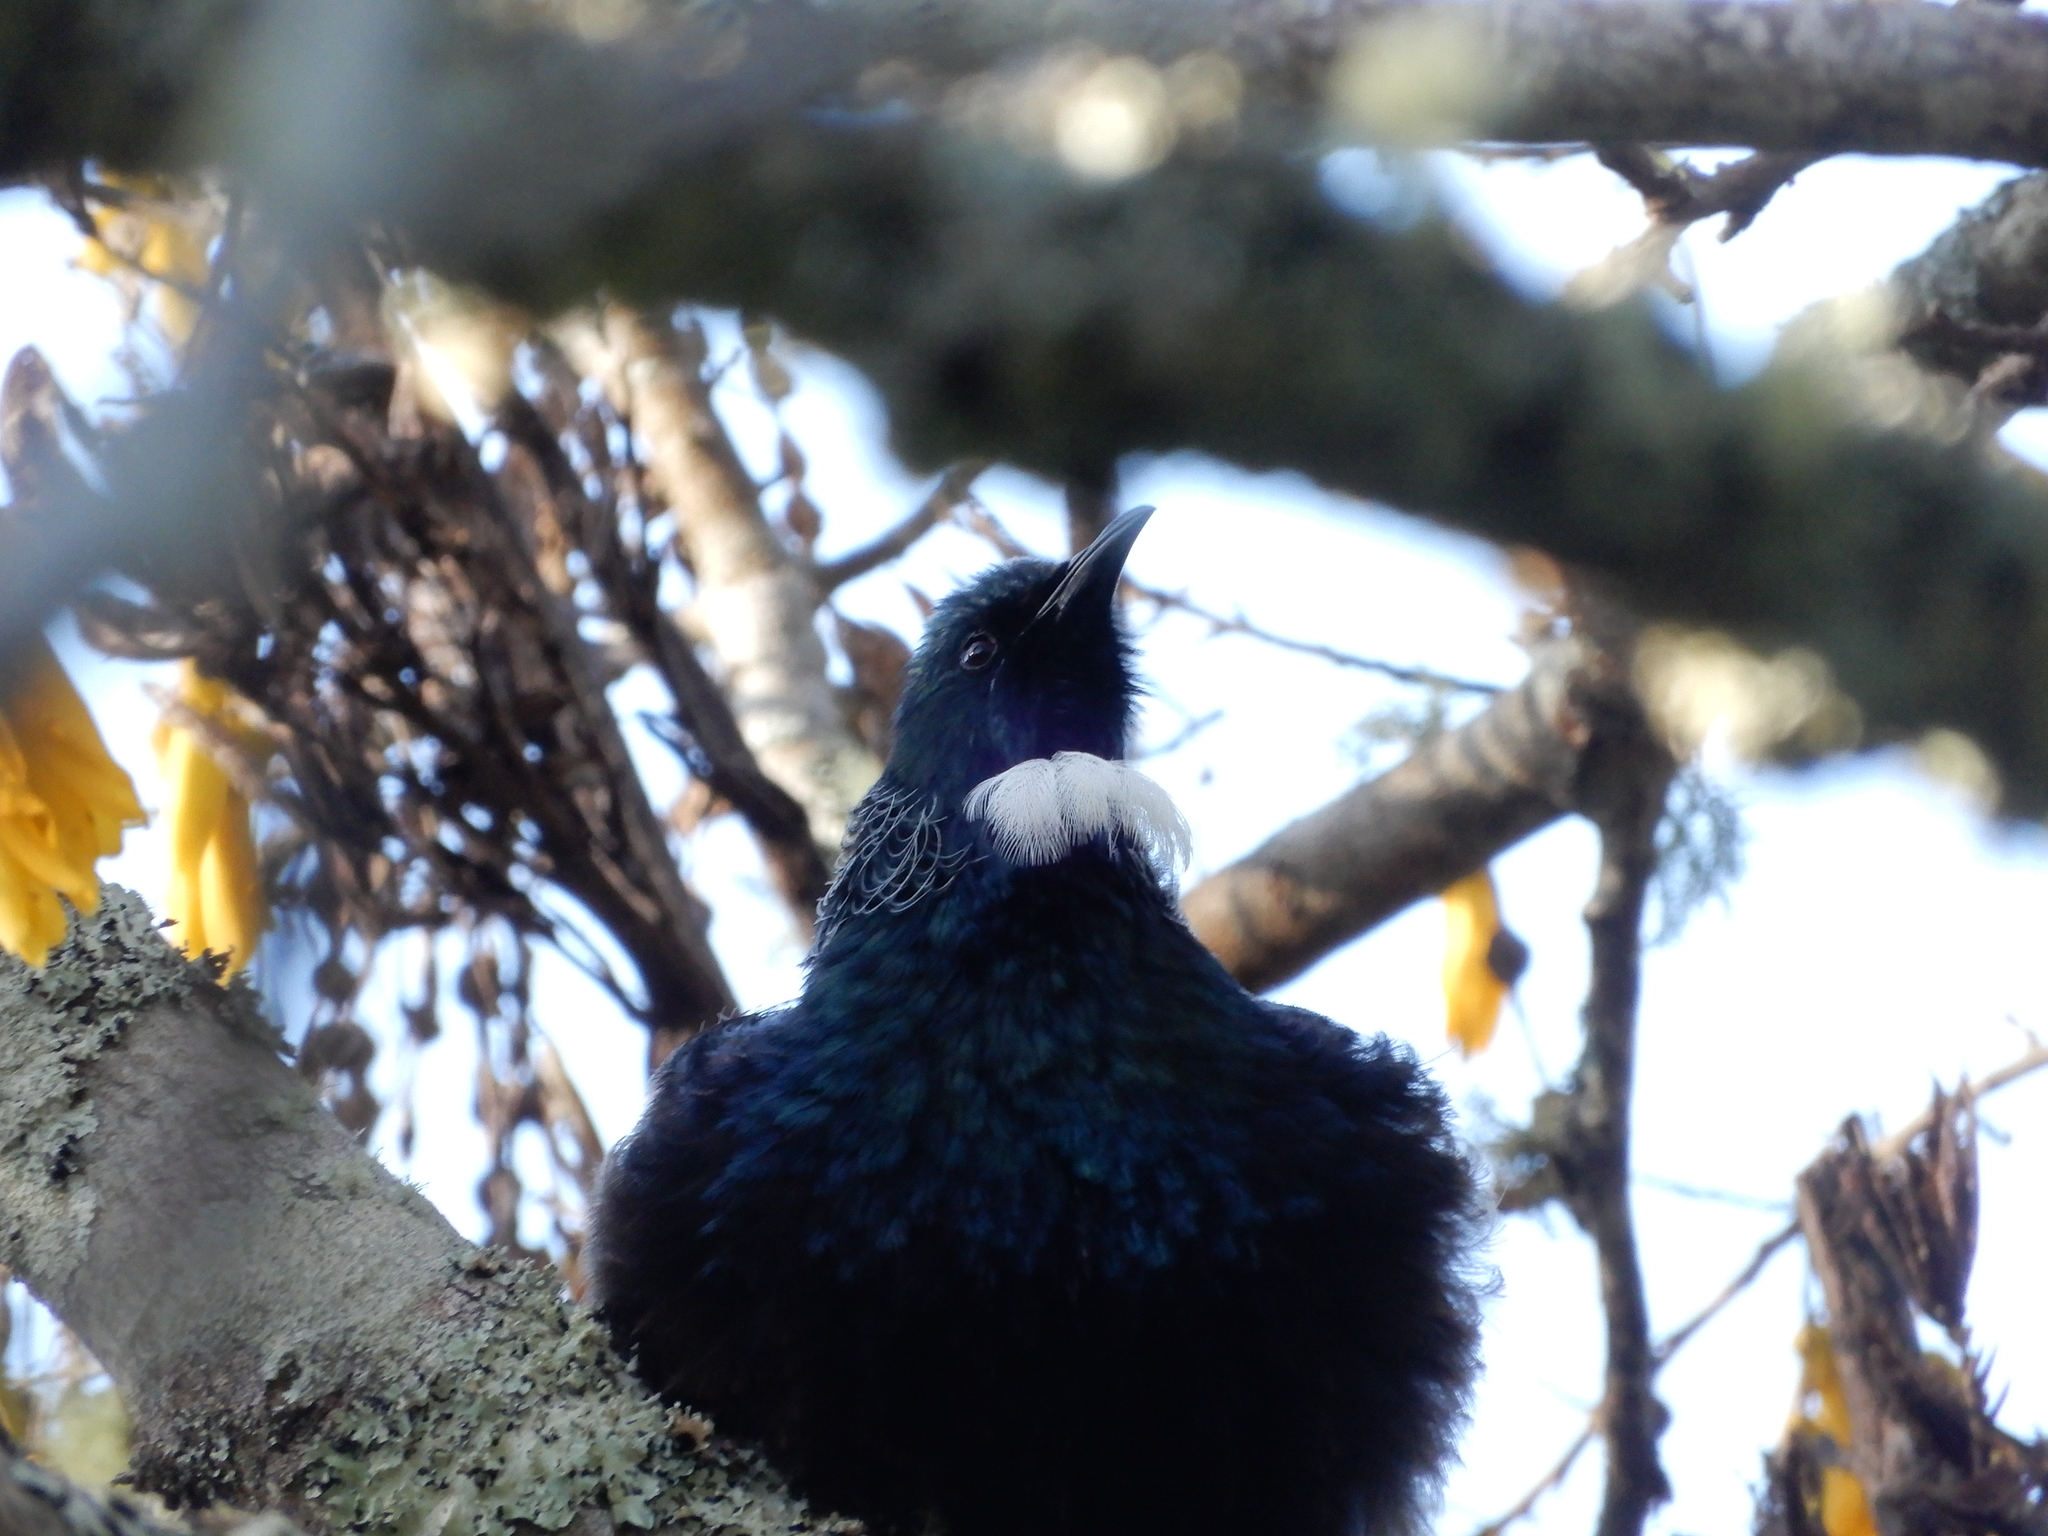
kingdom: Animalia
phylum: Chordata
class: Aves
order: Passeriformes
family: Meliphagidae
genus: Prosthemadera
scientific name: Prosthemadera novaeseelandiae
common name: Tui
